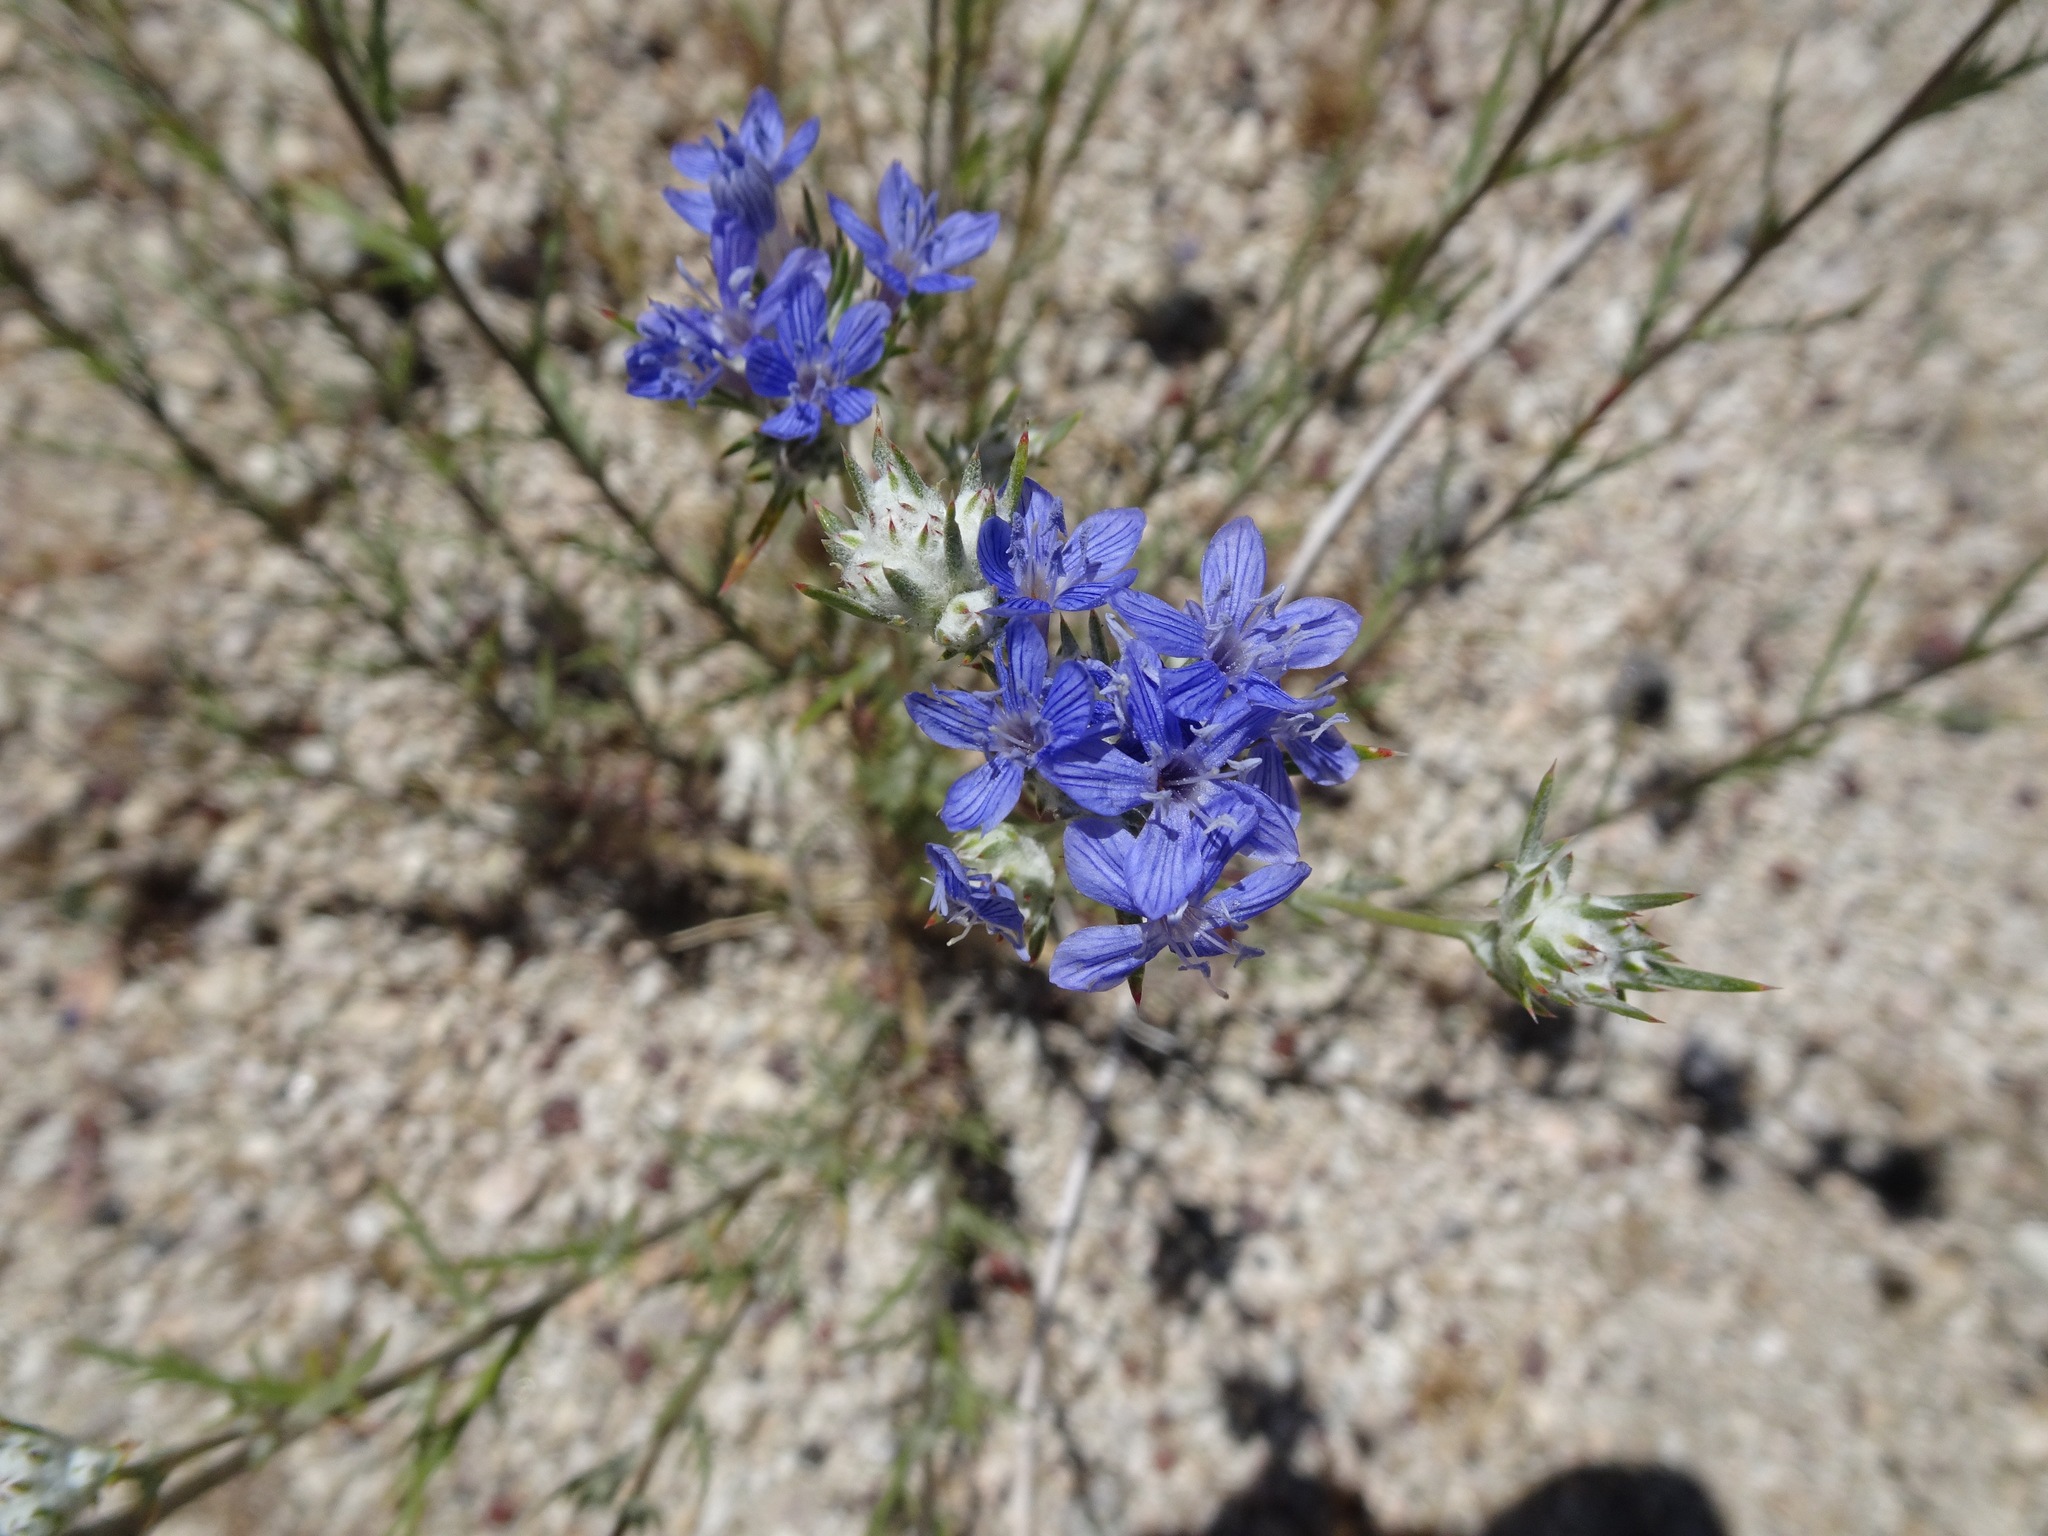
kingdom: Plantae
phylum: Tracheophyta
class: Magnoliopsida
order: Ericales
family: Polemoniaceae
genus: Eriastrum
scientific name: Eriastrum densifolium
